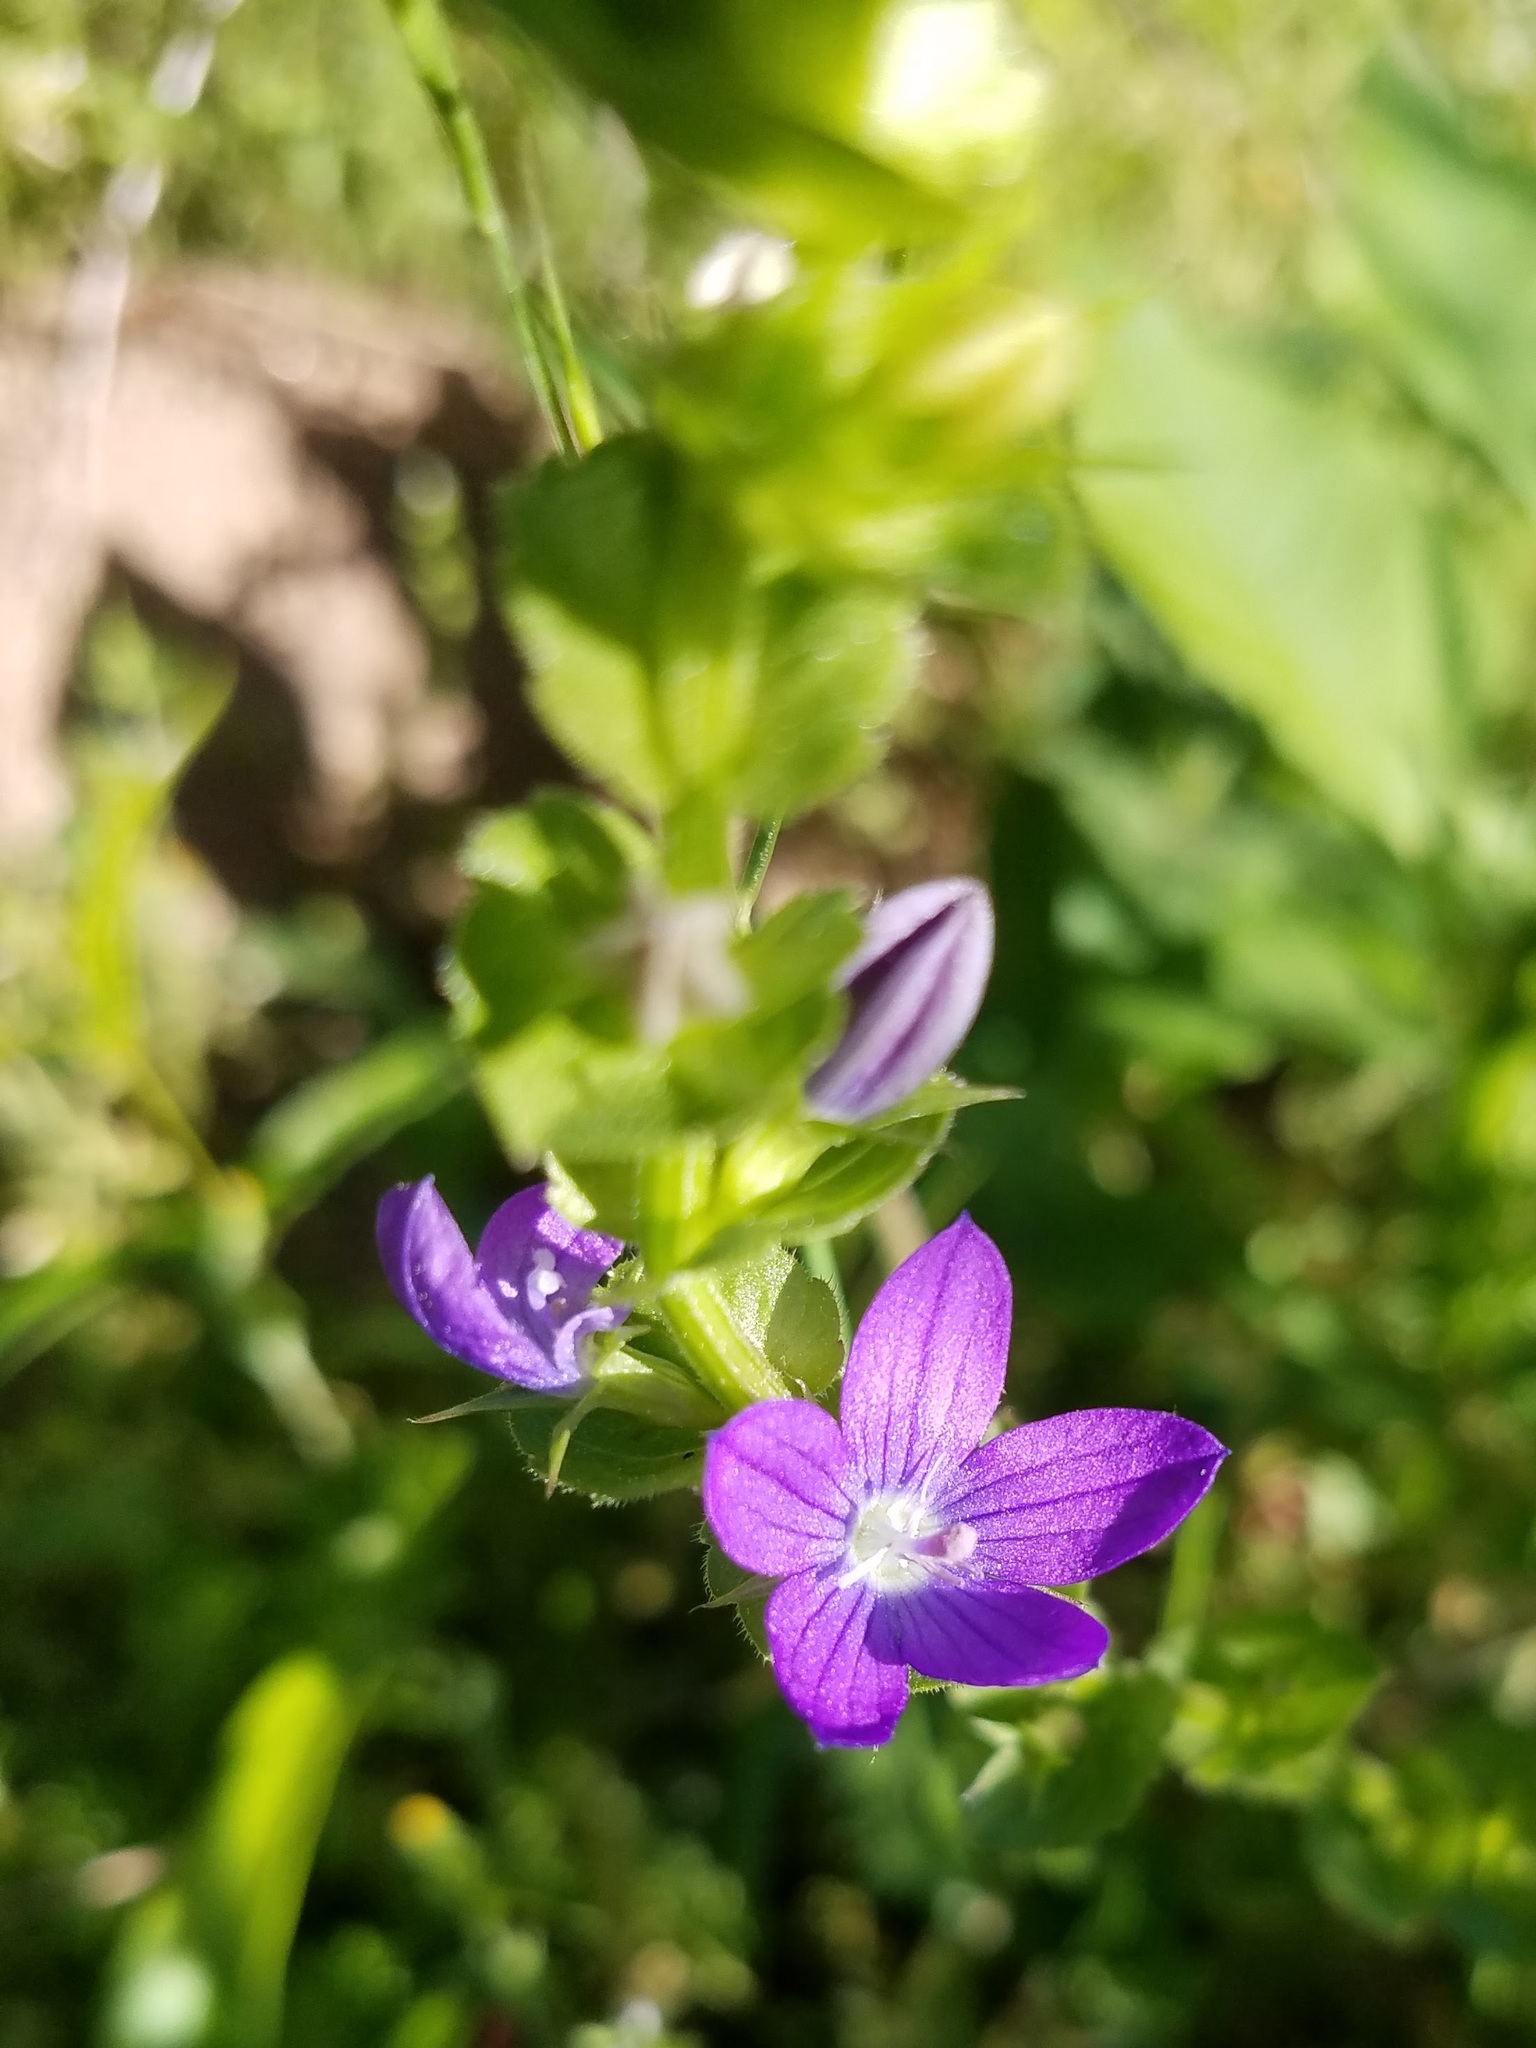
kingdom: Plantae
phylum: Tracheophyta
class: Magnoliopsida
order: Asterales
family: Campanulaceae
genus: Triodanis
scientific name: Triodanis perfoliata
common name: Clasping venus' looking-glass
